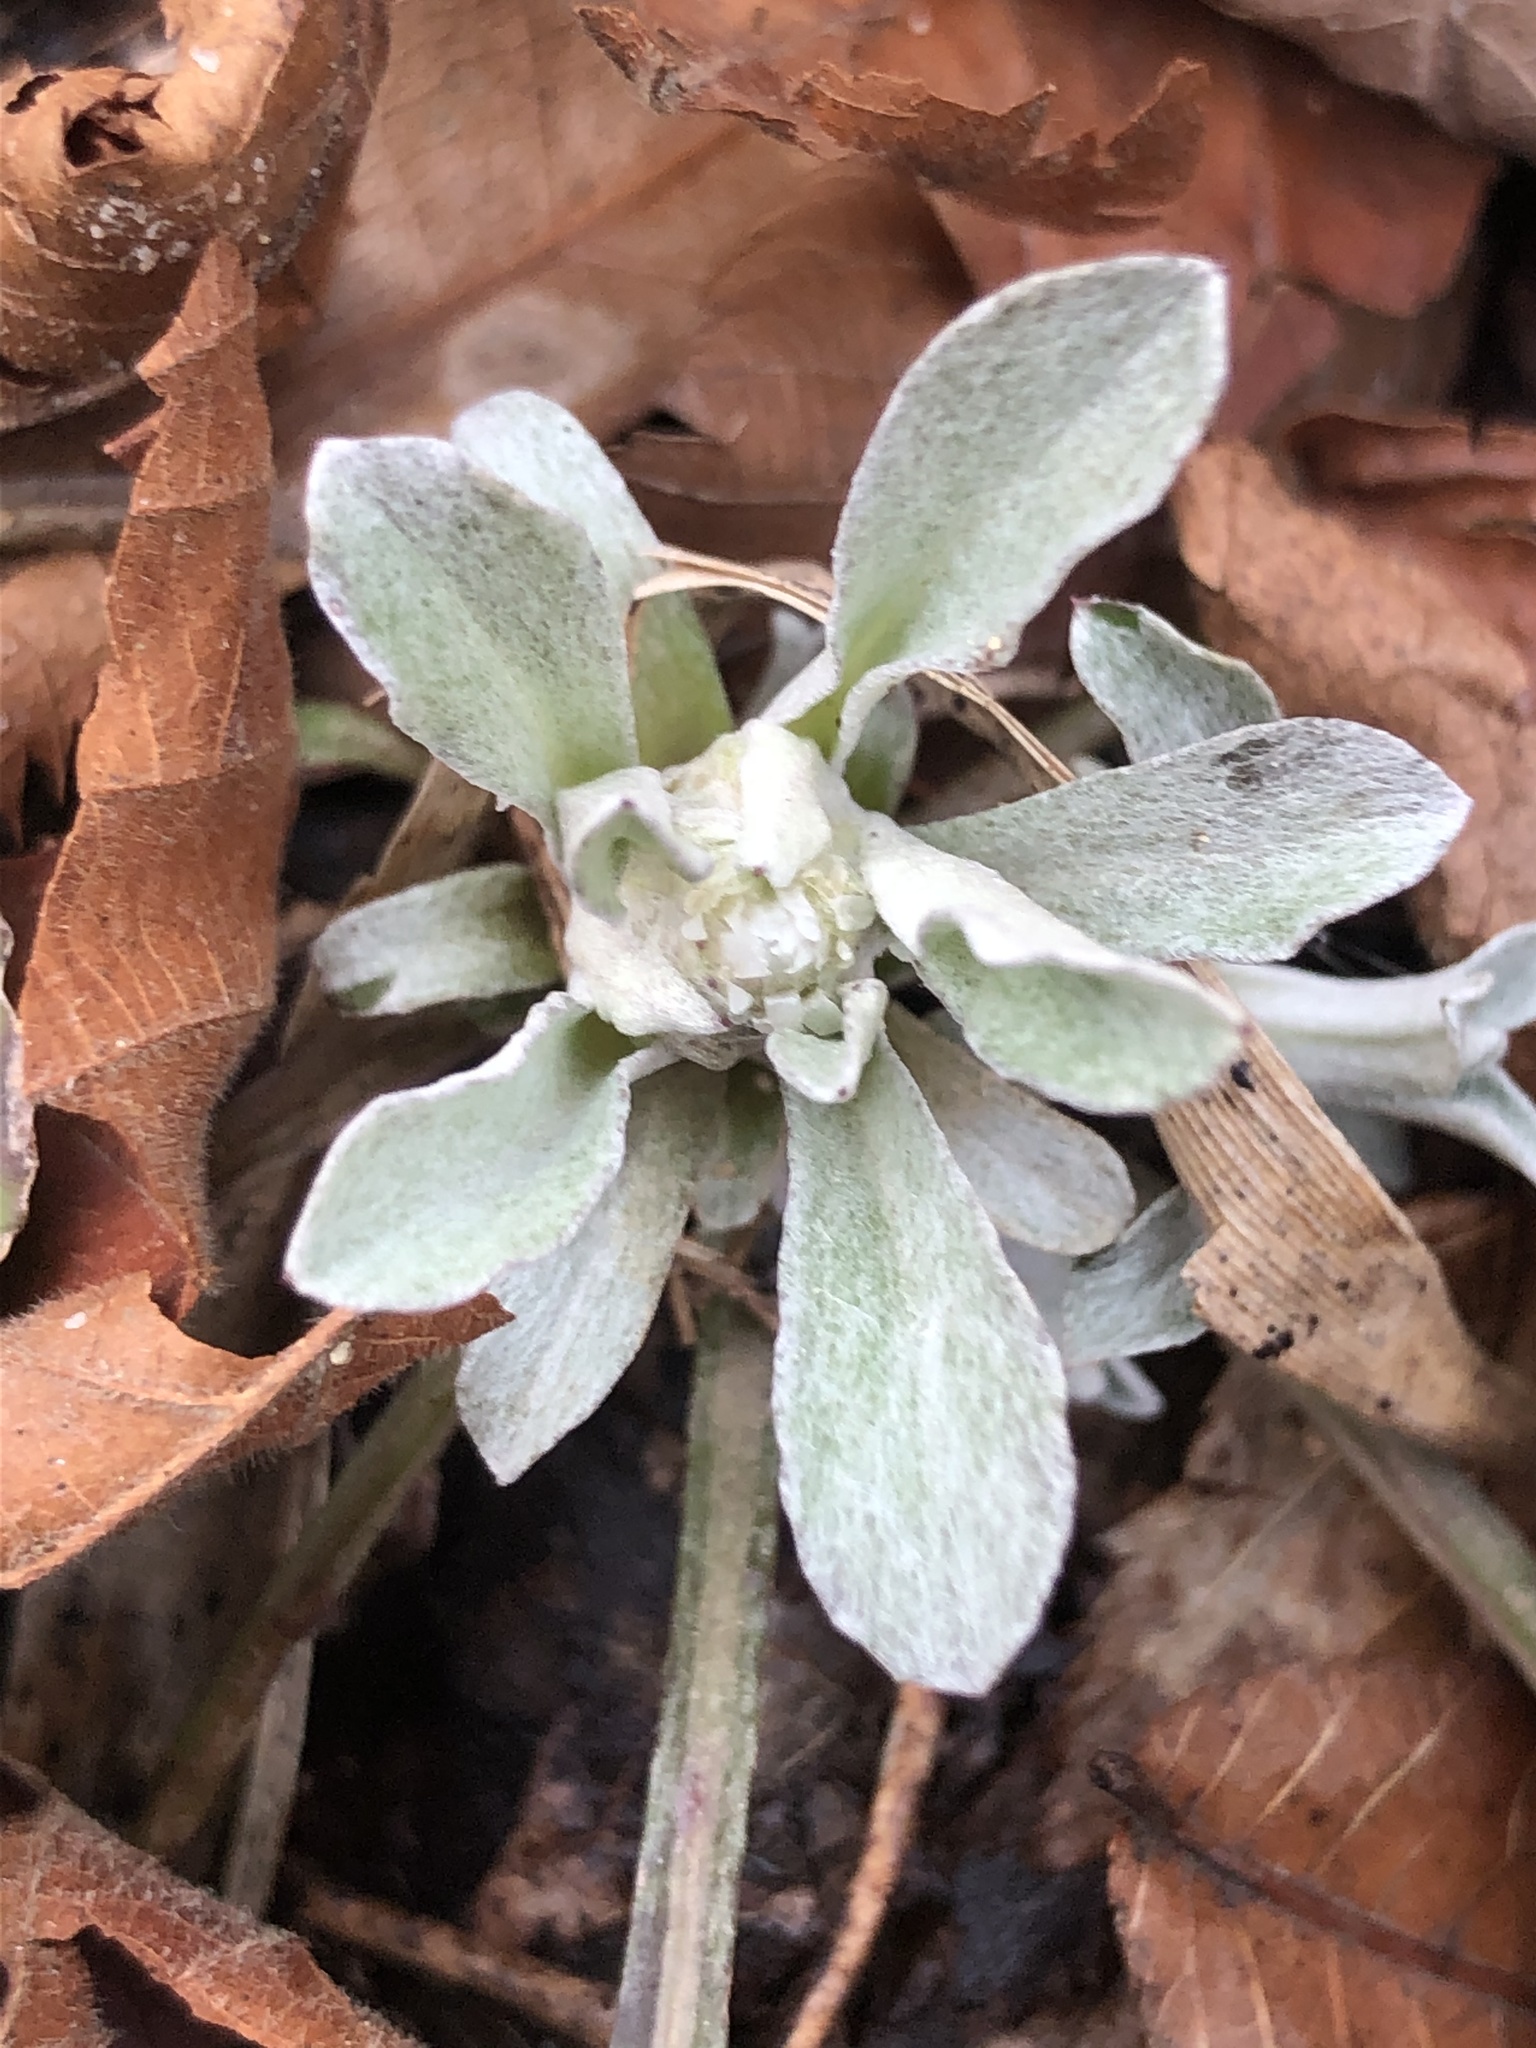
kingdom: Plantae
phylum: Tracheophyta
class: Magnoliopsida
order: Asterales
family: Asteraceae
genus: Antennaria
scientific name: Antennaria plantaginifolia
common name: Plantain-leaved pussytoes
